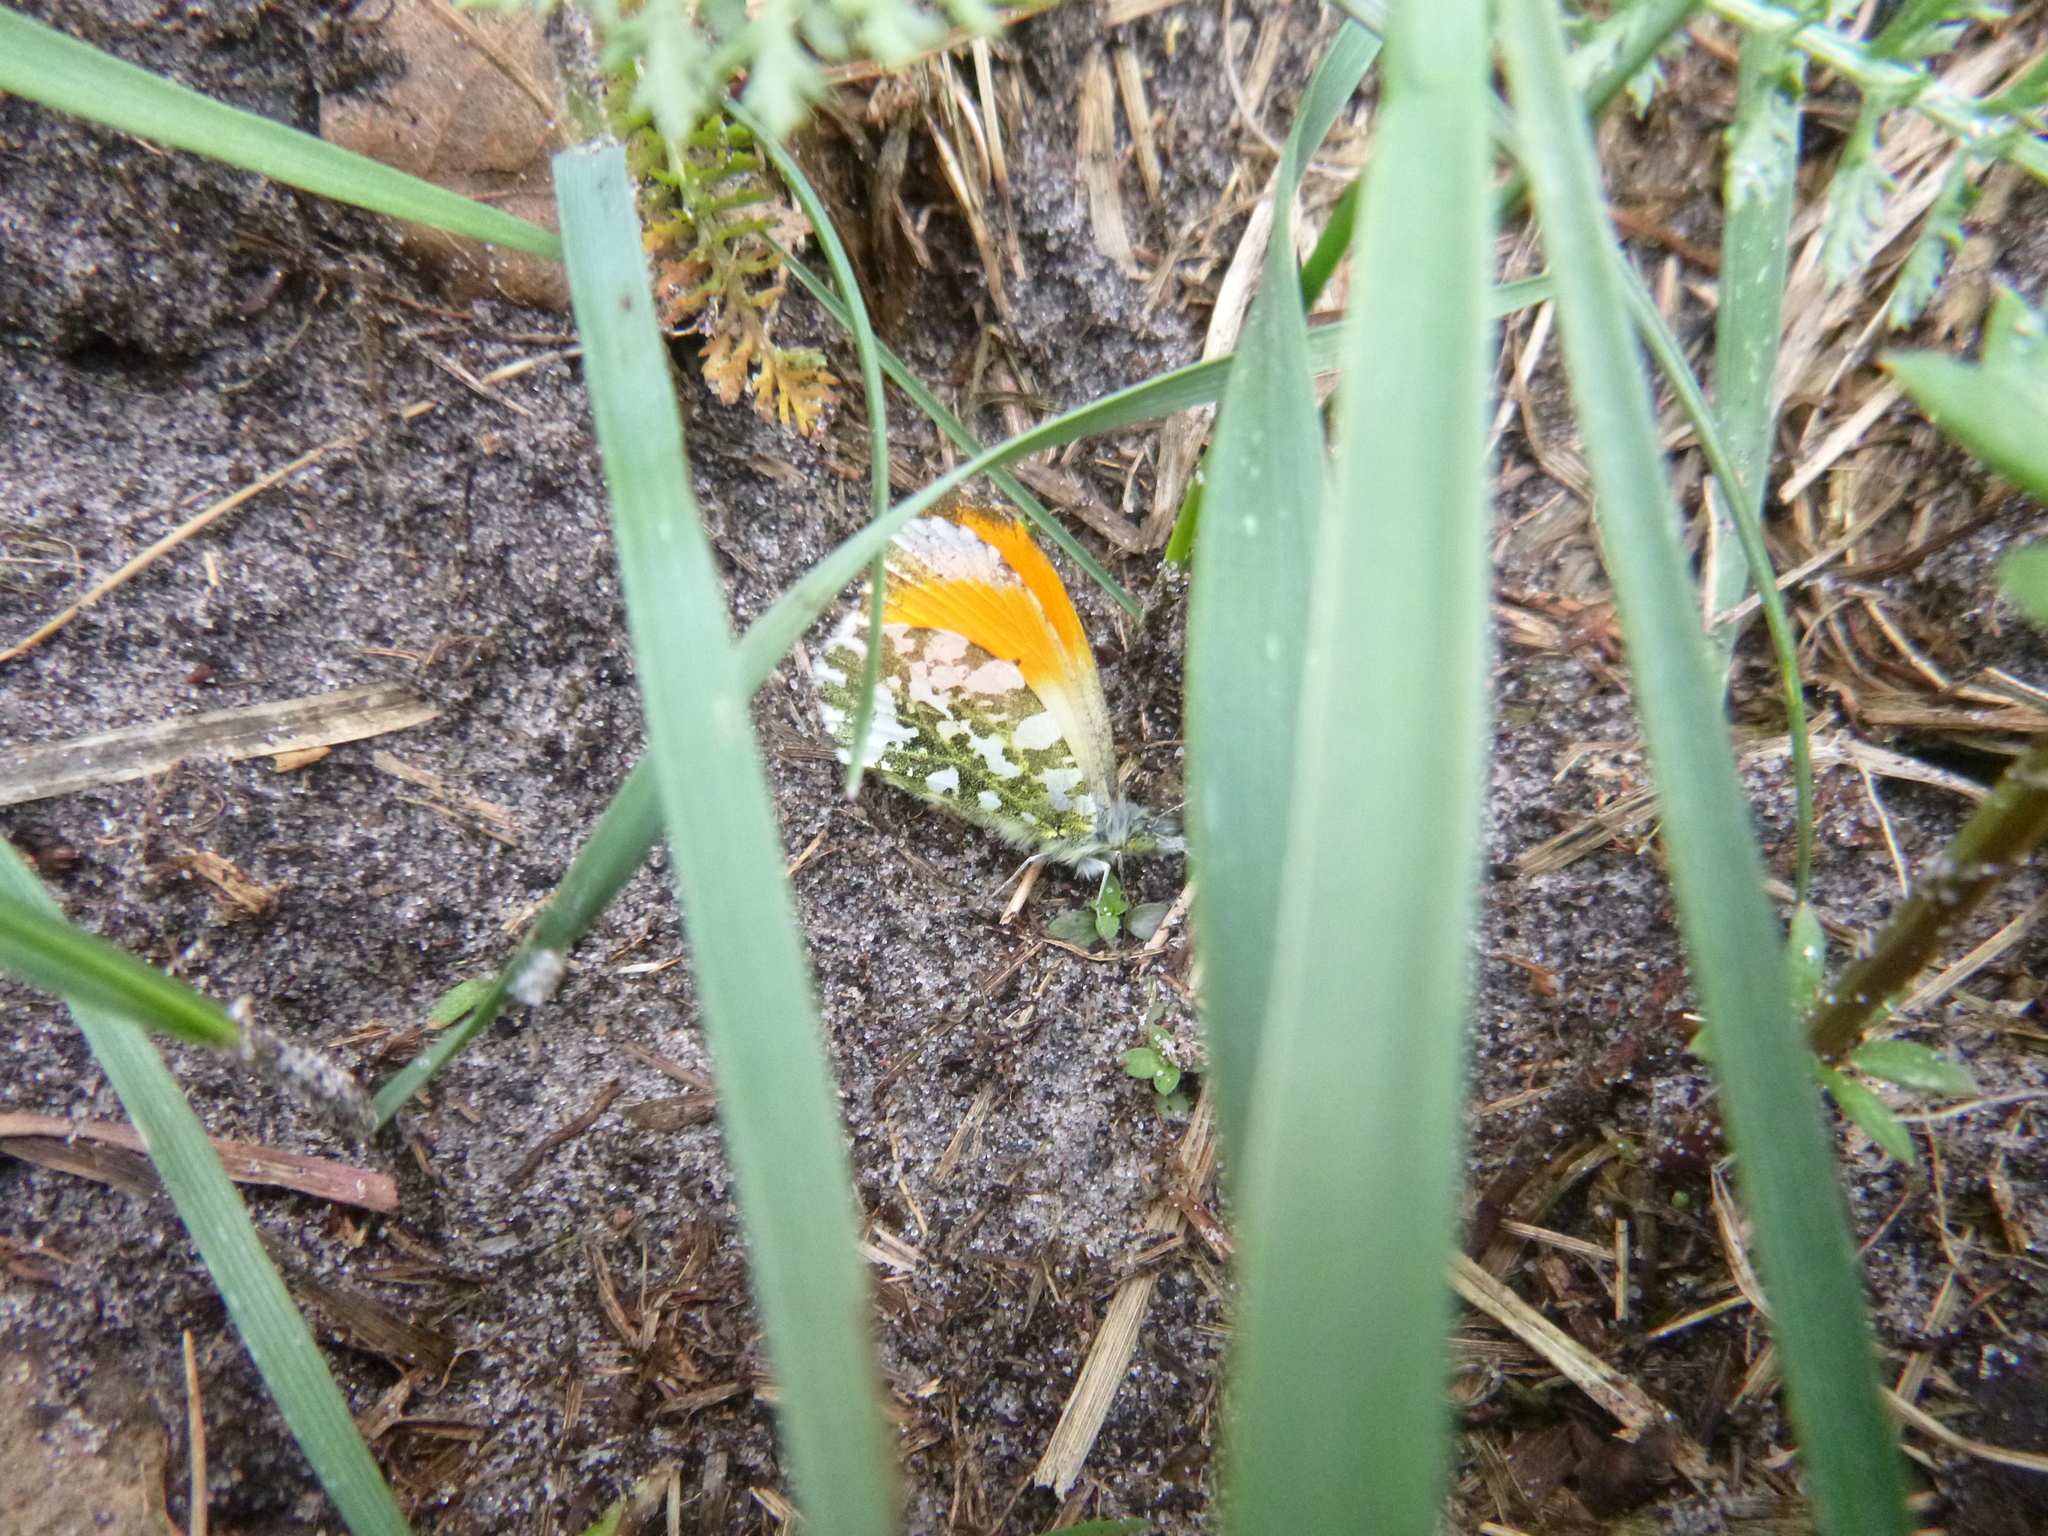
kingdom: Animalia
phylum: Arthropoda
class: Insecta
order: Lepidoptera
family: Pieridae
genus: Anthocharis
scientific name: Anthocharis cardamines
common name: Orange-tip
